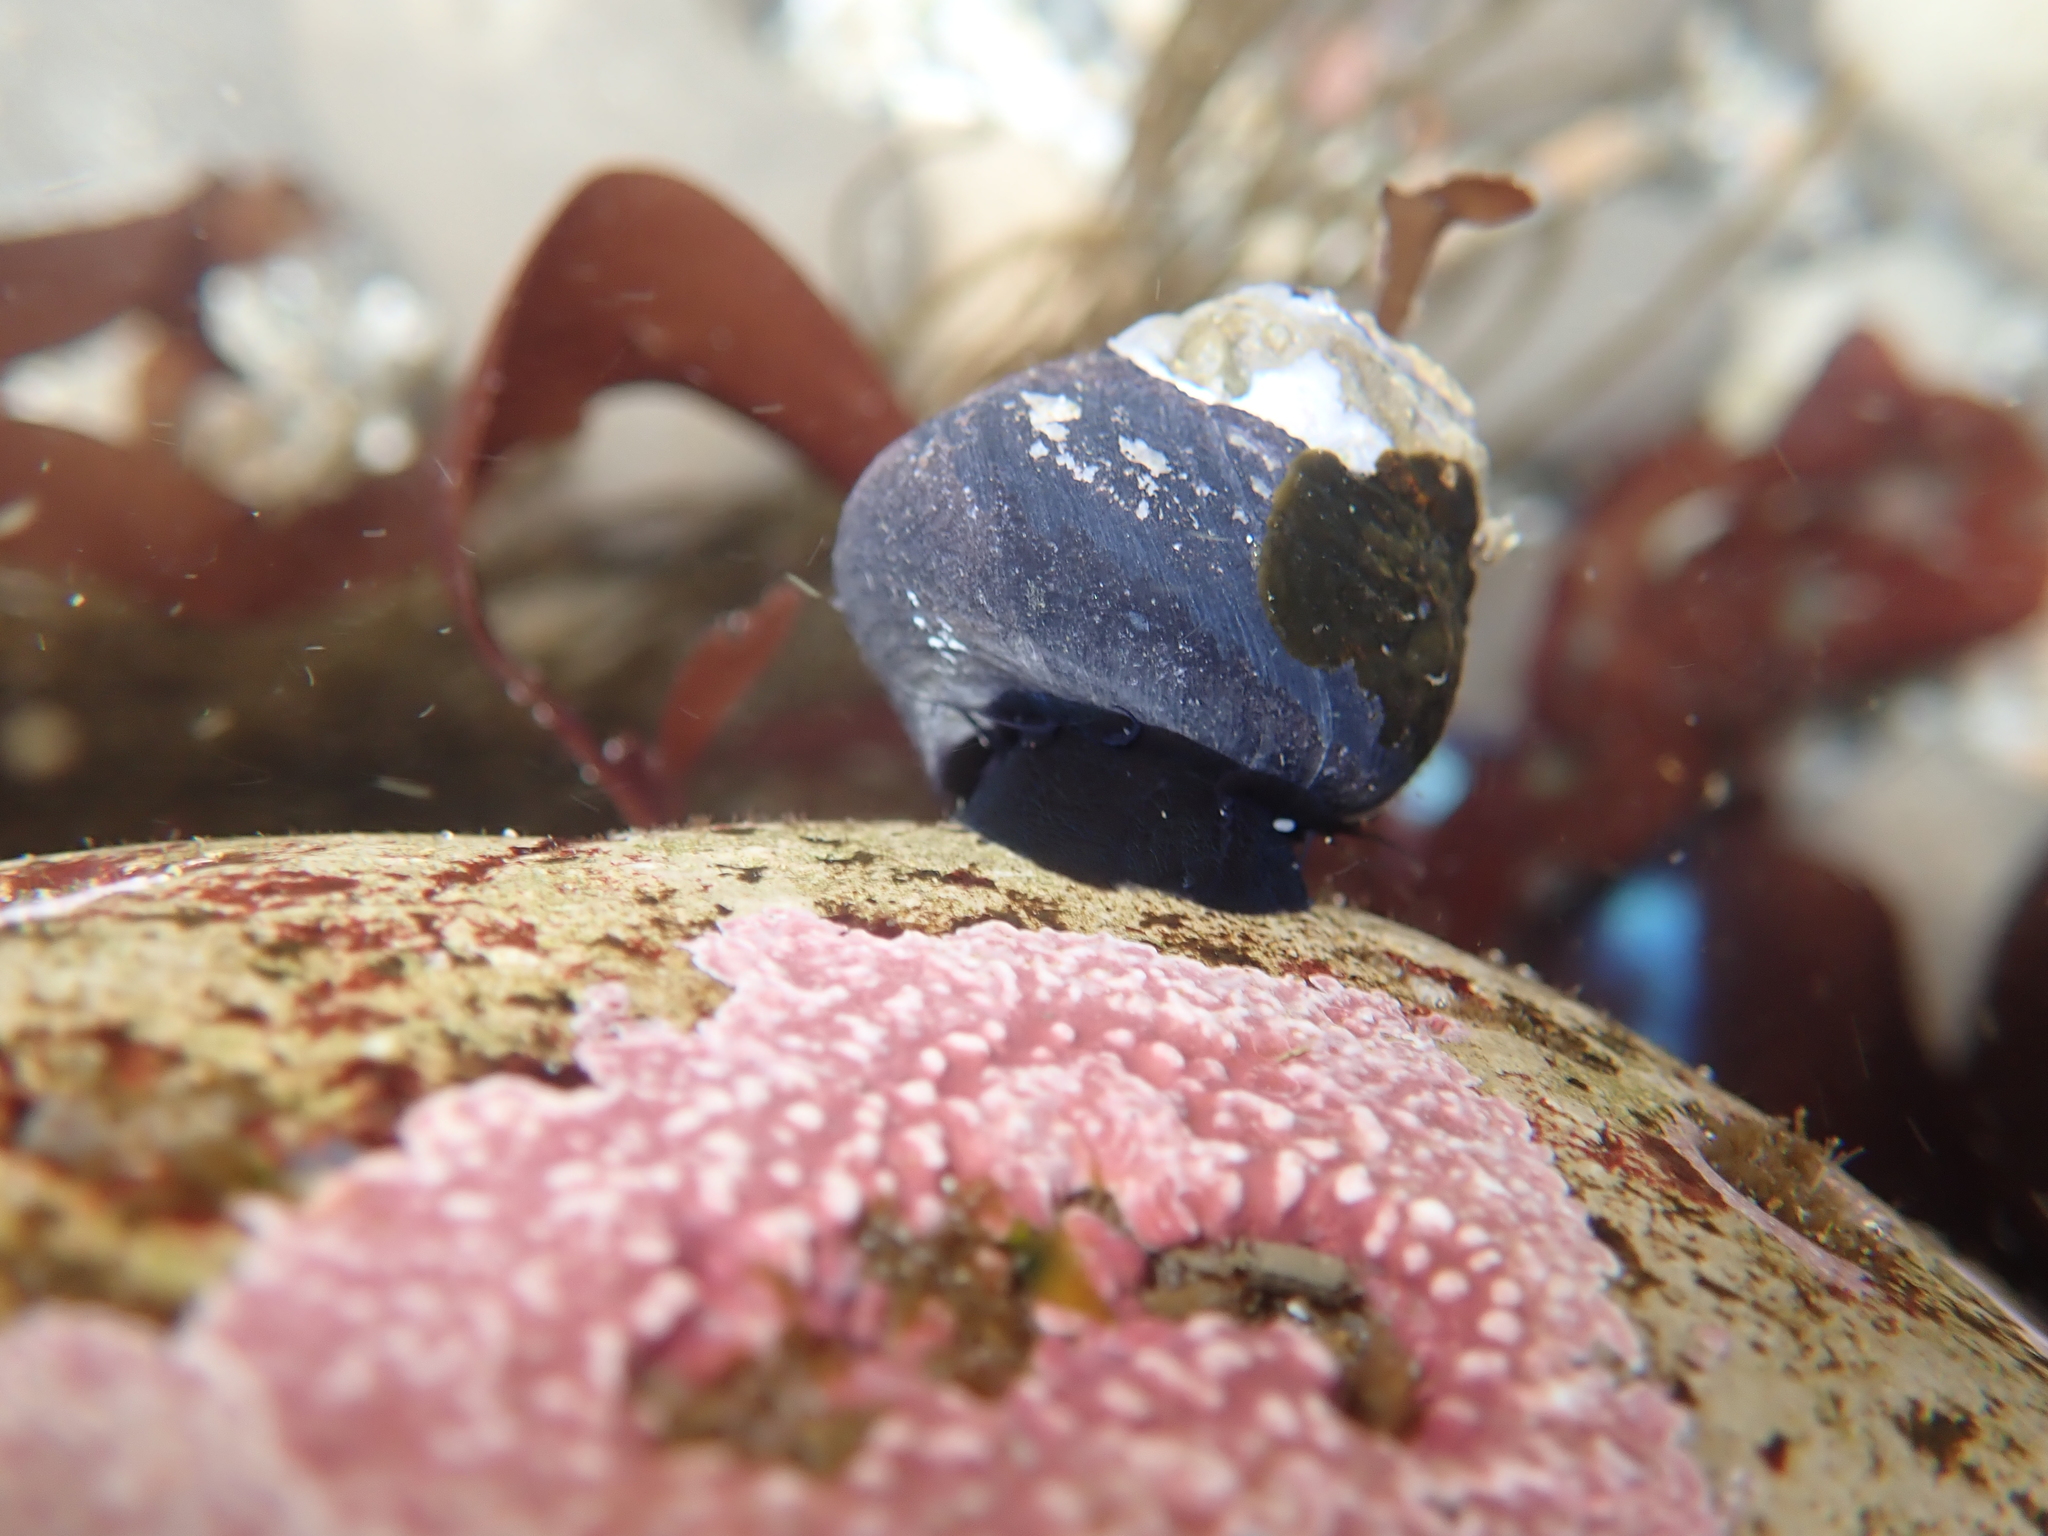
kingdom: Animalia
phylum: Mollusca
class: Gastropoda
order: Trochida
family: Tegulidae
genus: Tegula
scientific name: Tegula funebralis
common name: Black tegula
